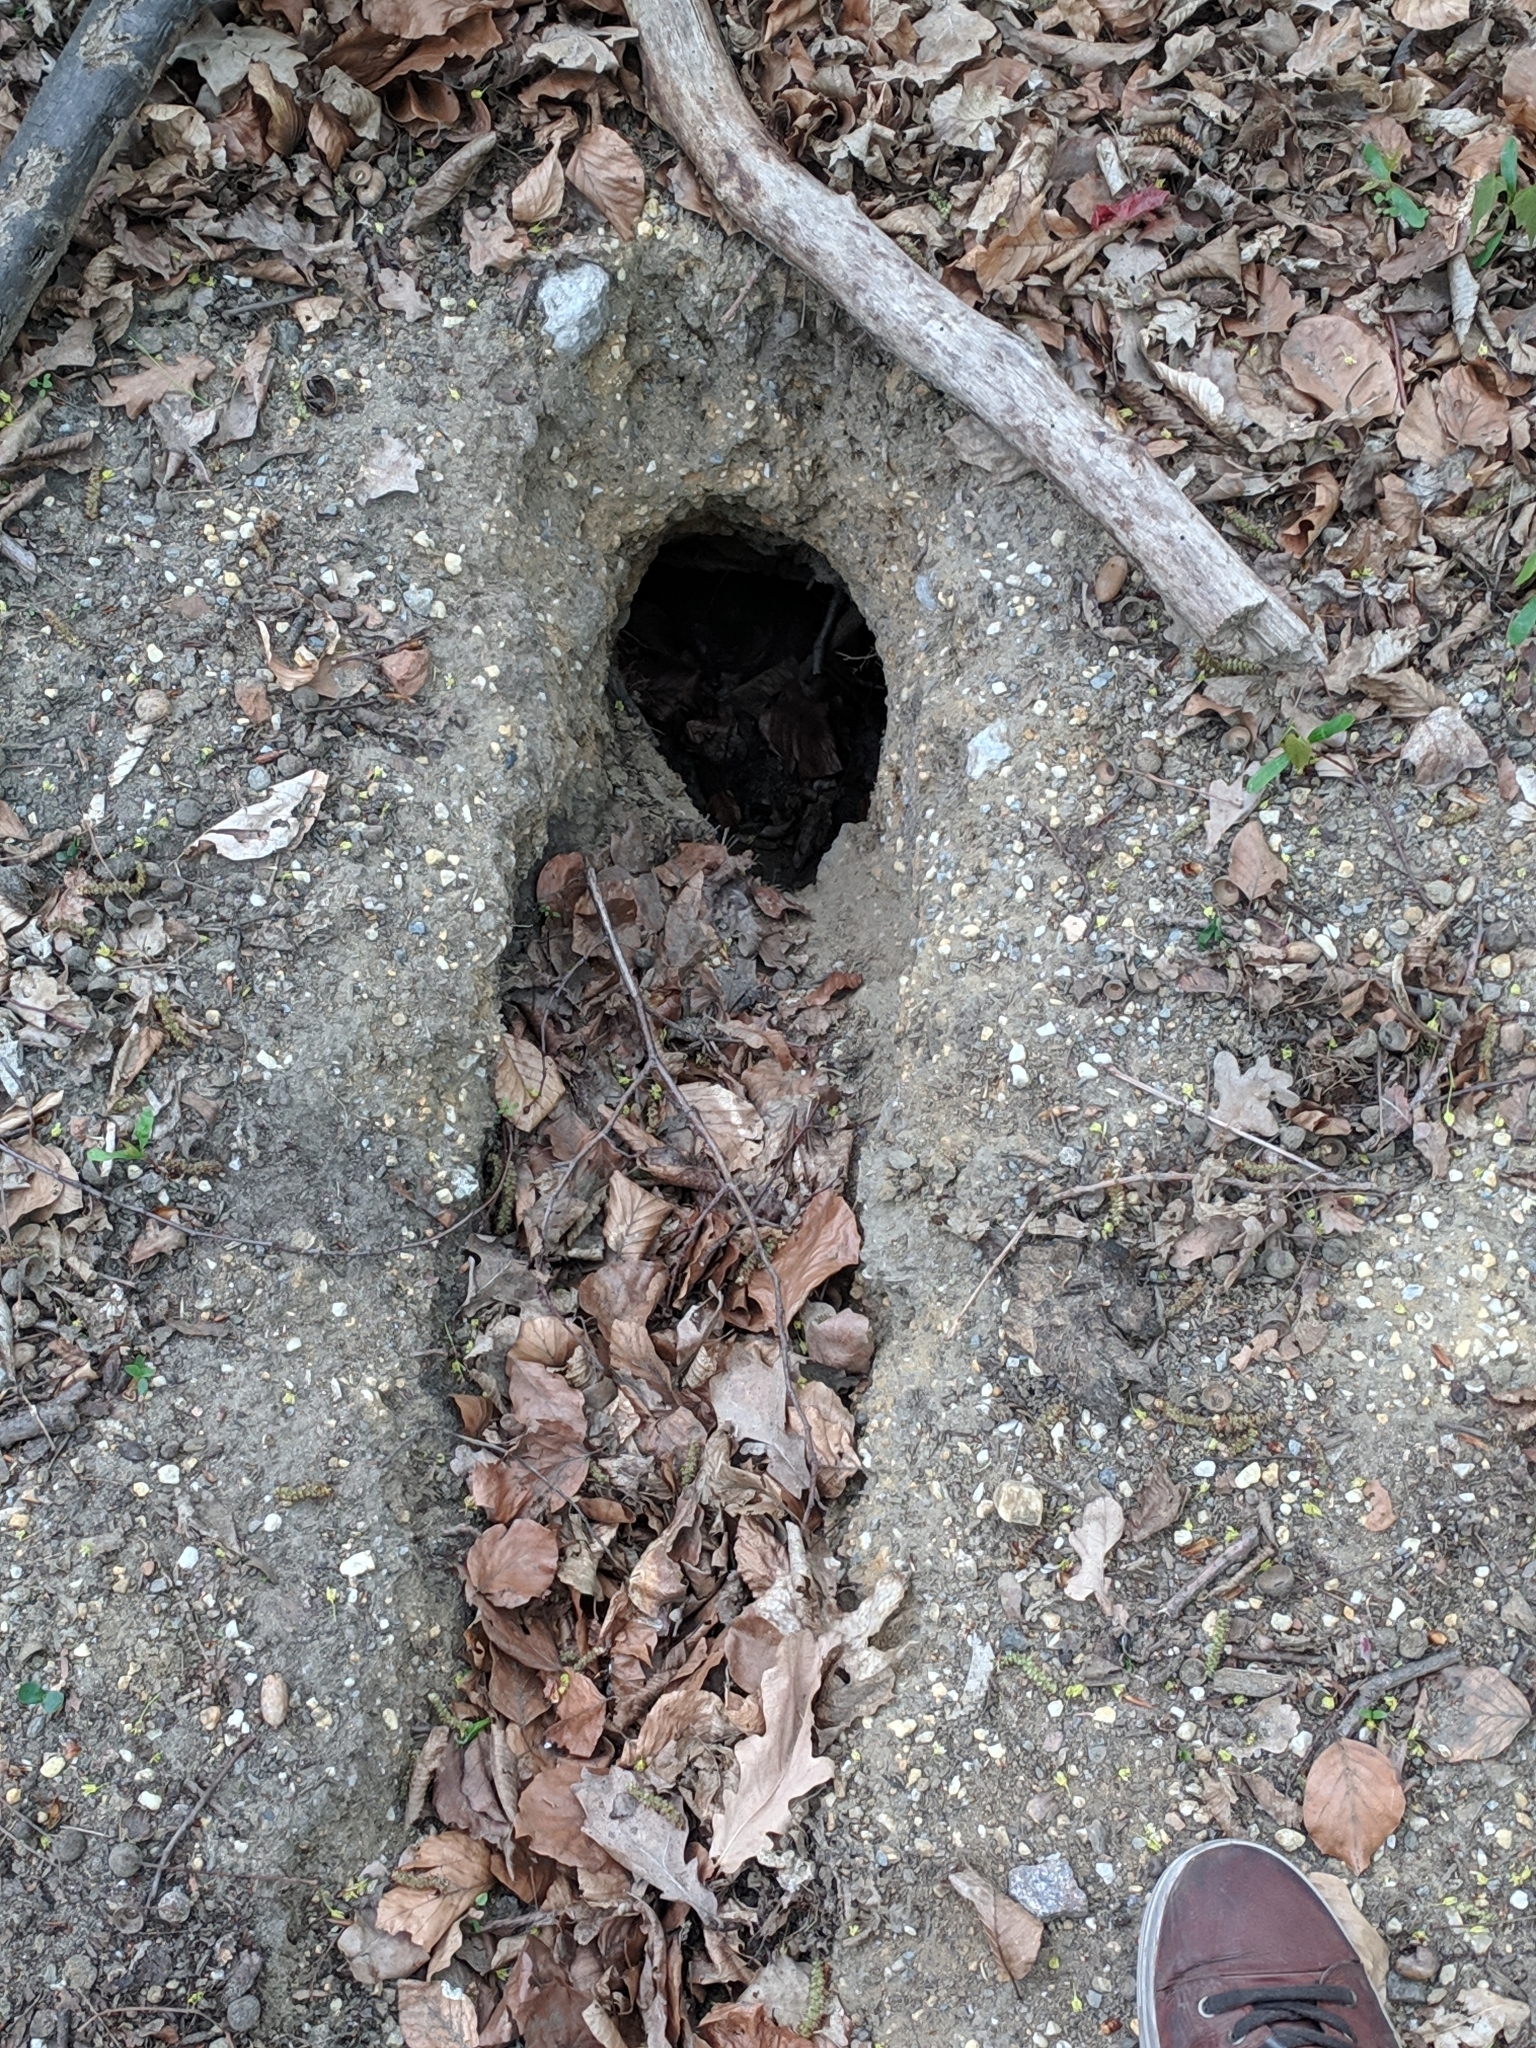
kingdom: Animalia
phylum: Chordata
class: Mammalia
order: Lagomorpha
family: Leporidae
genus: Oryctolagus
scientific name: Oryctolagus cuniculus
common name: European rabbit
